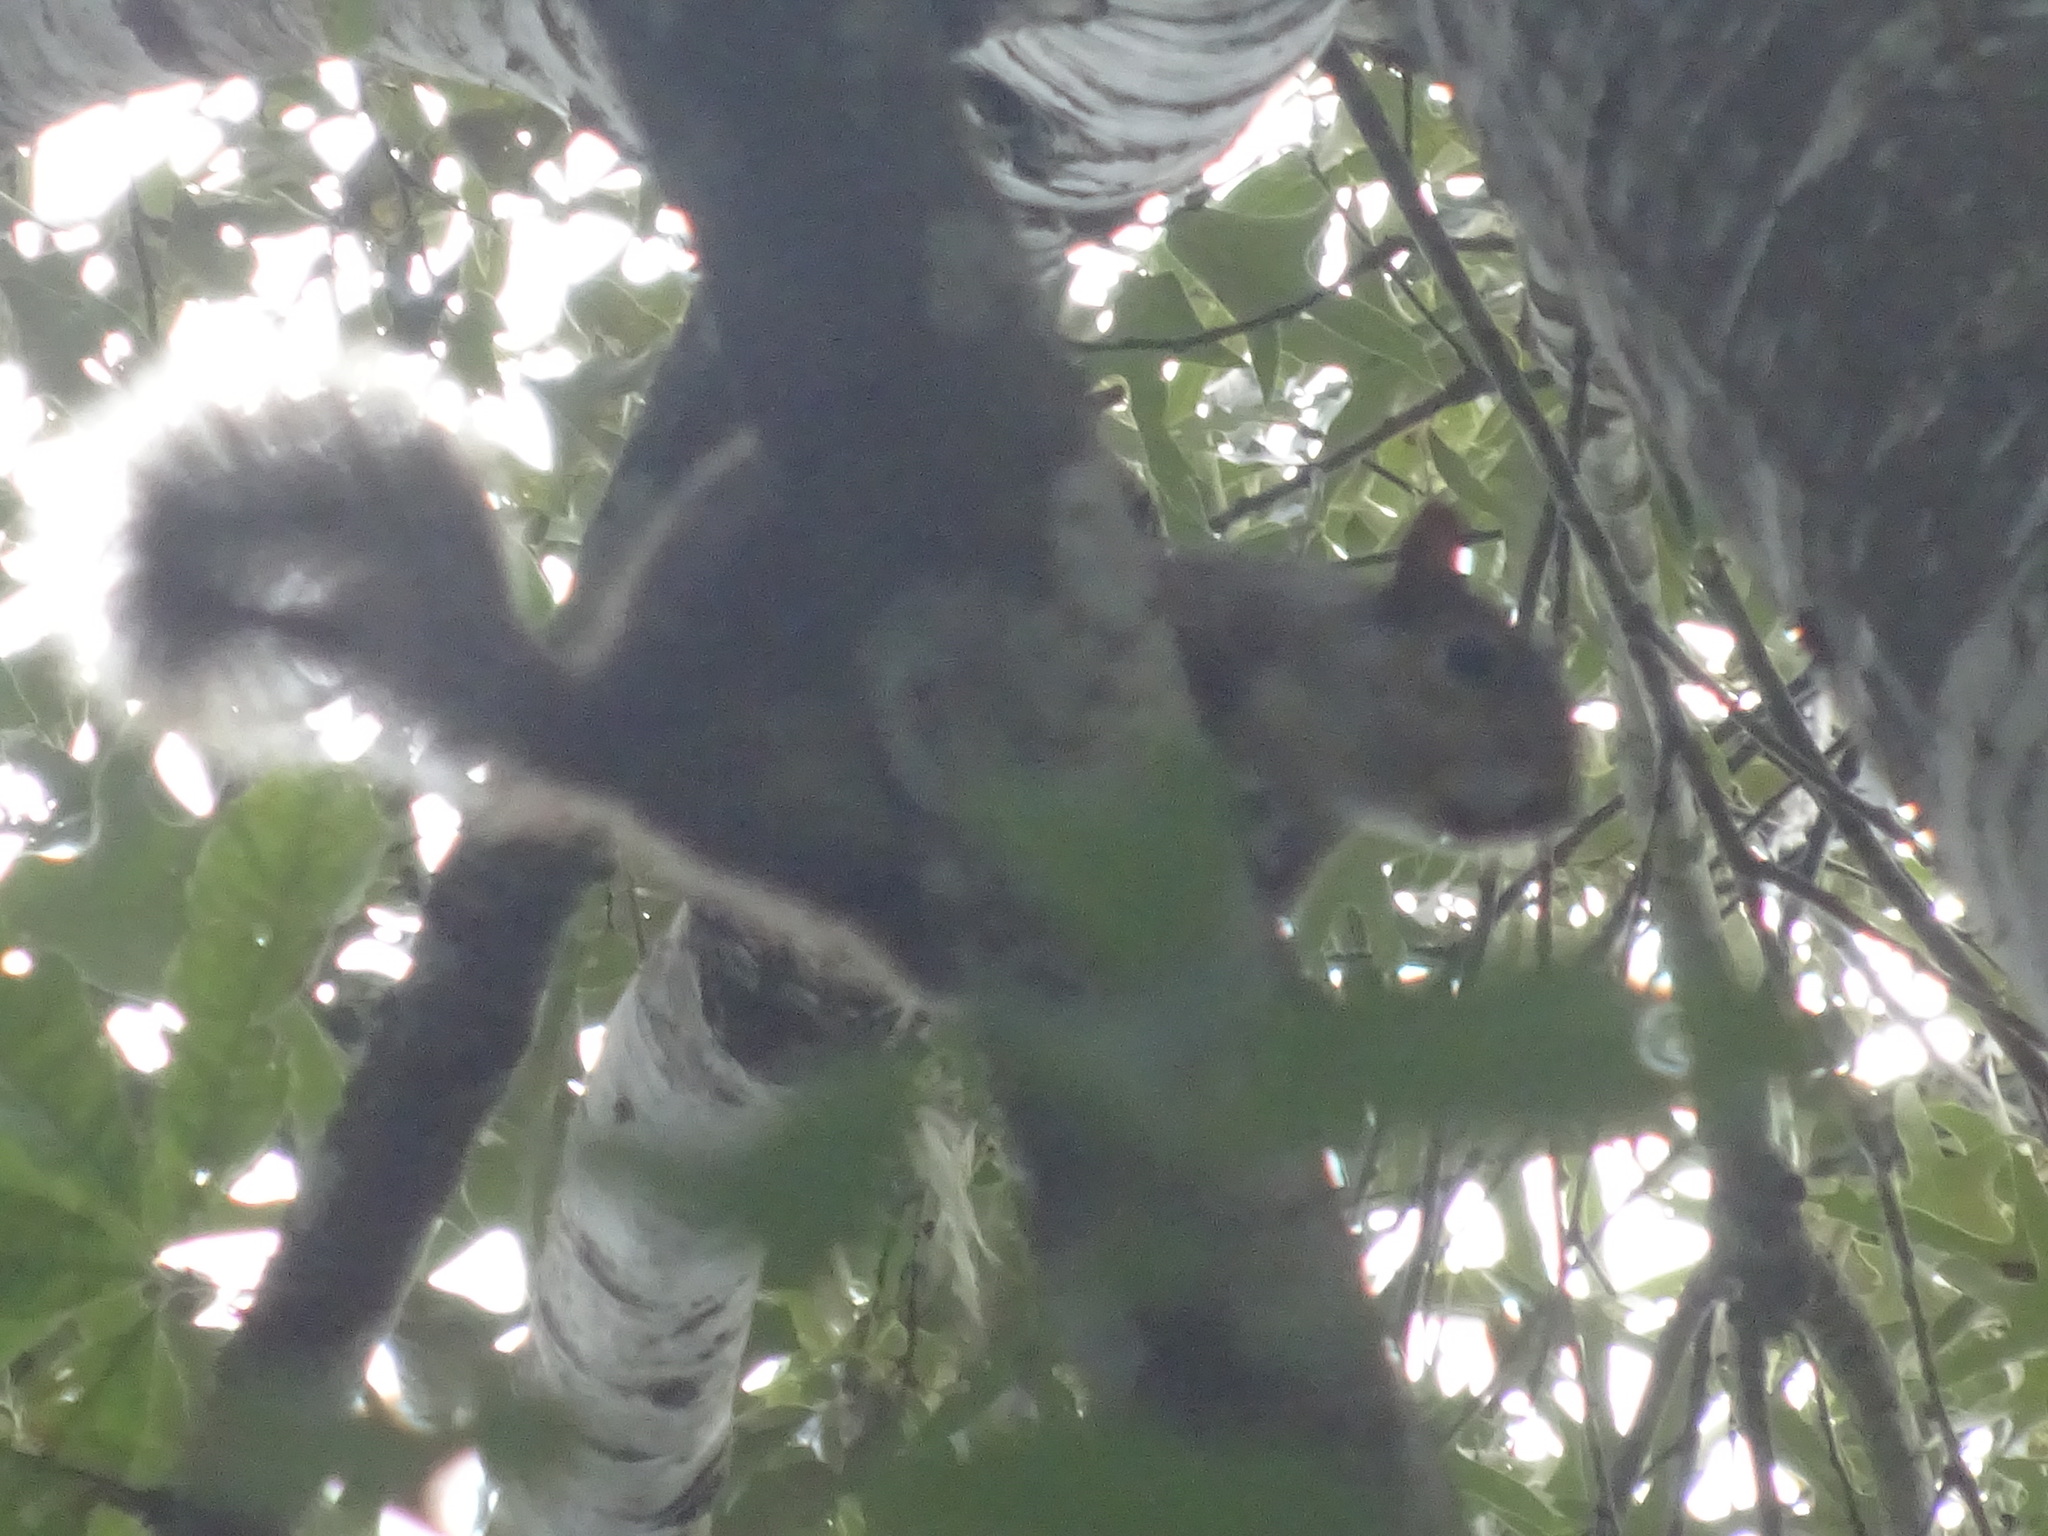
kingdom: Animalia
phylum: Chordata
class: Mammalia
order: Rodentia
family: Sciuridae
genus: Sciurus
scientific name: Sciurus carolinensis
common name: Eastern gray squirrel
